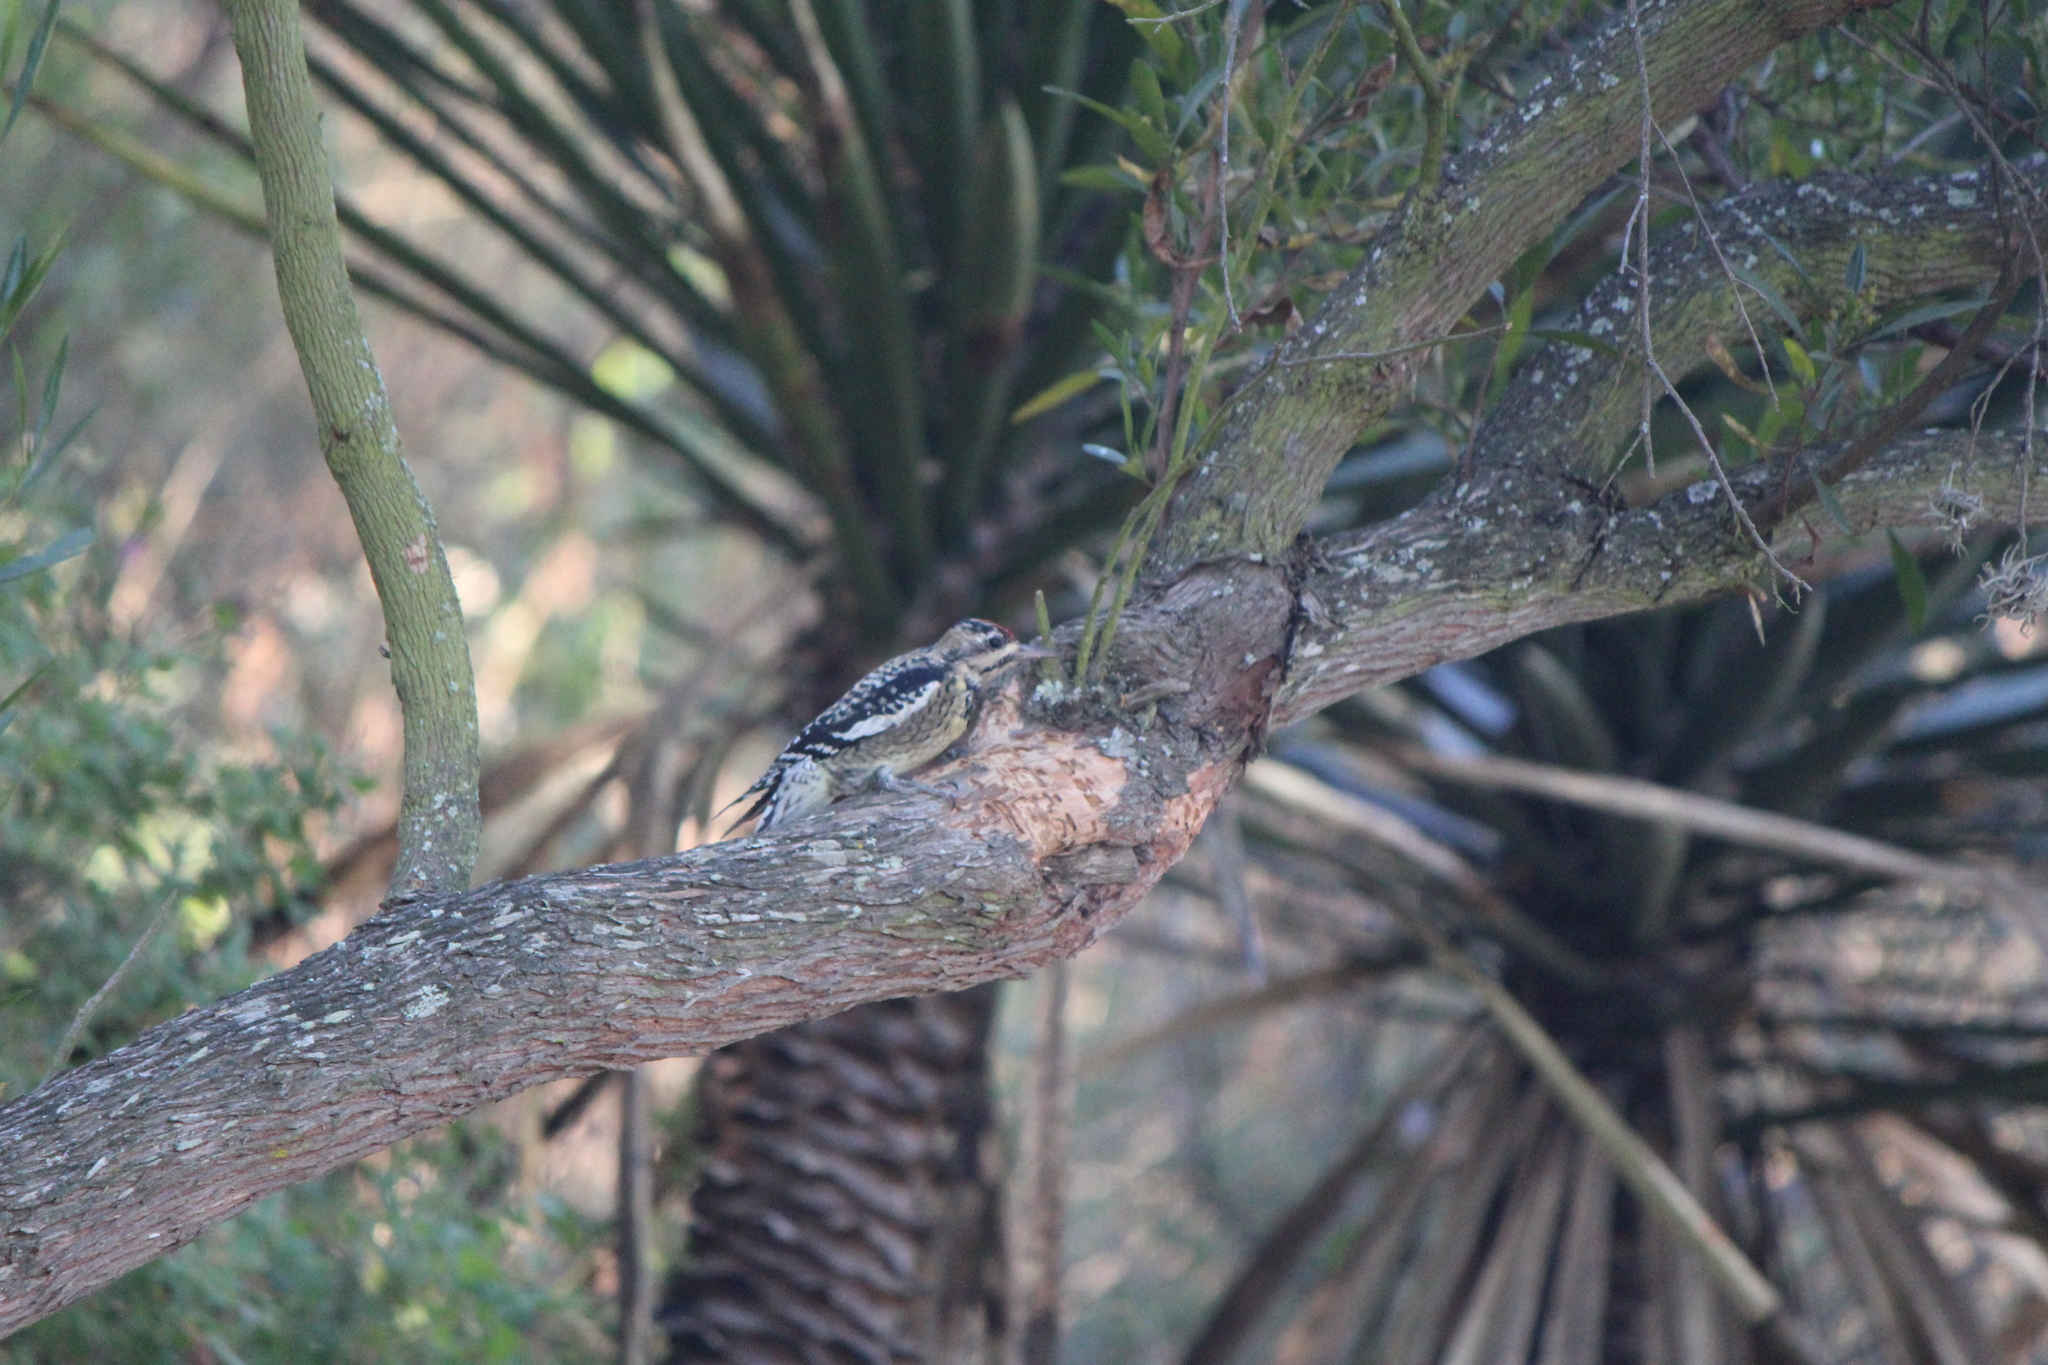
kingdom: Animalia
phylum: Chordata
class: Aves
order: Piciformes
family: Picidae
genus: Sphyrapicus
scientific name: Sphyrapicus varius
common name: Yellow-bellied sapsucker
